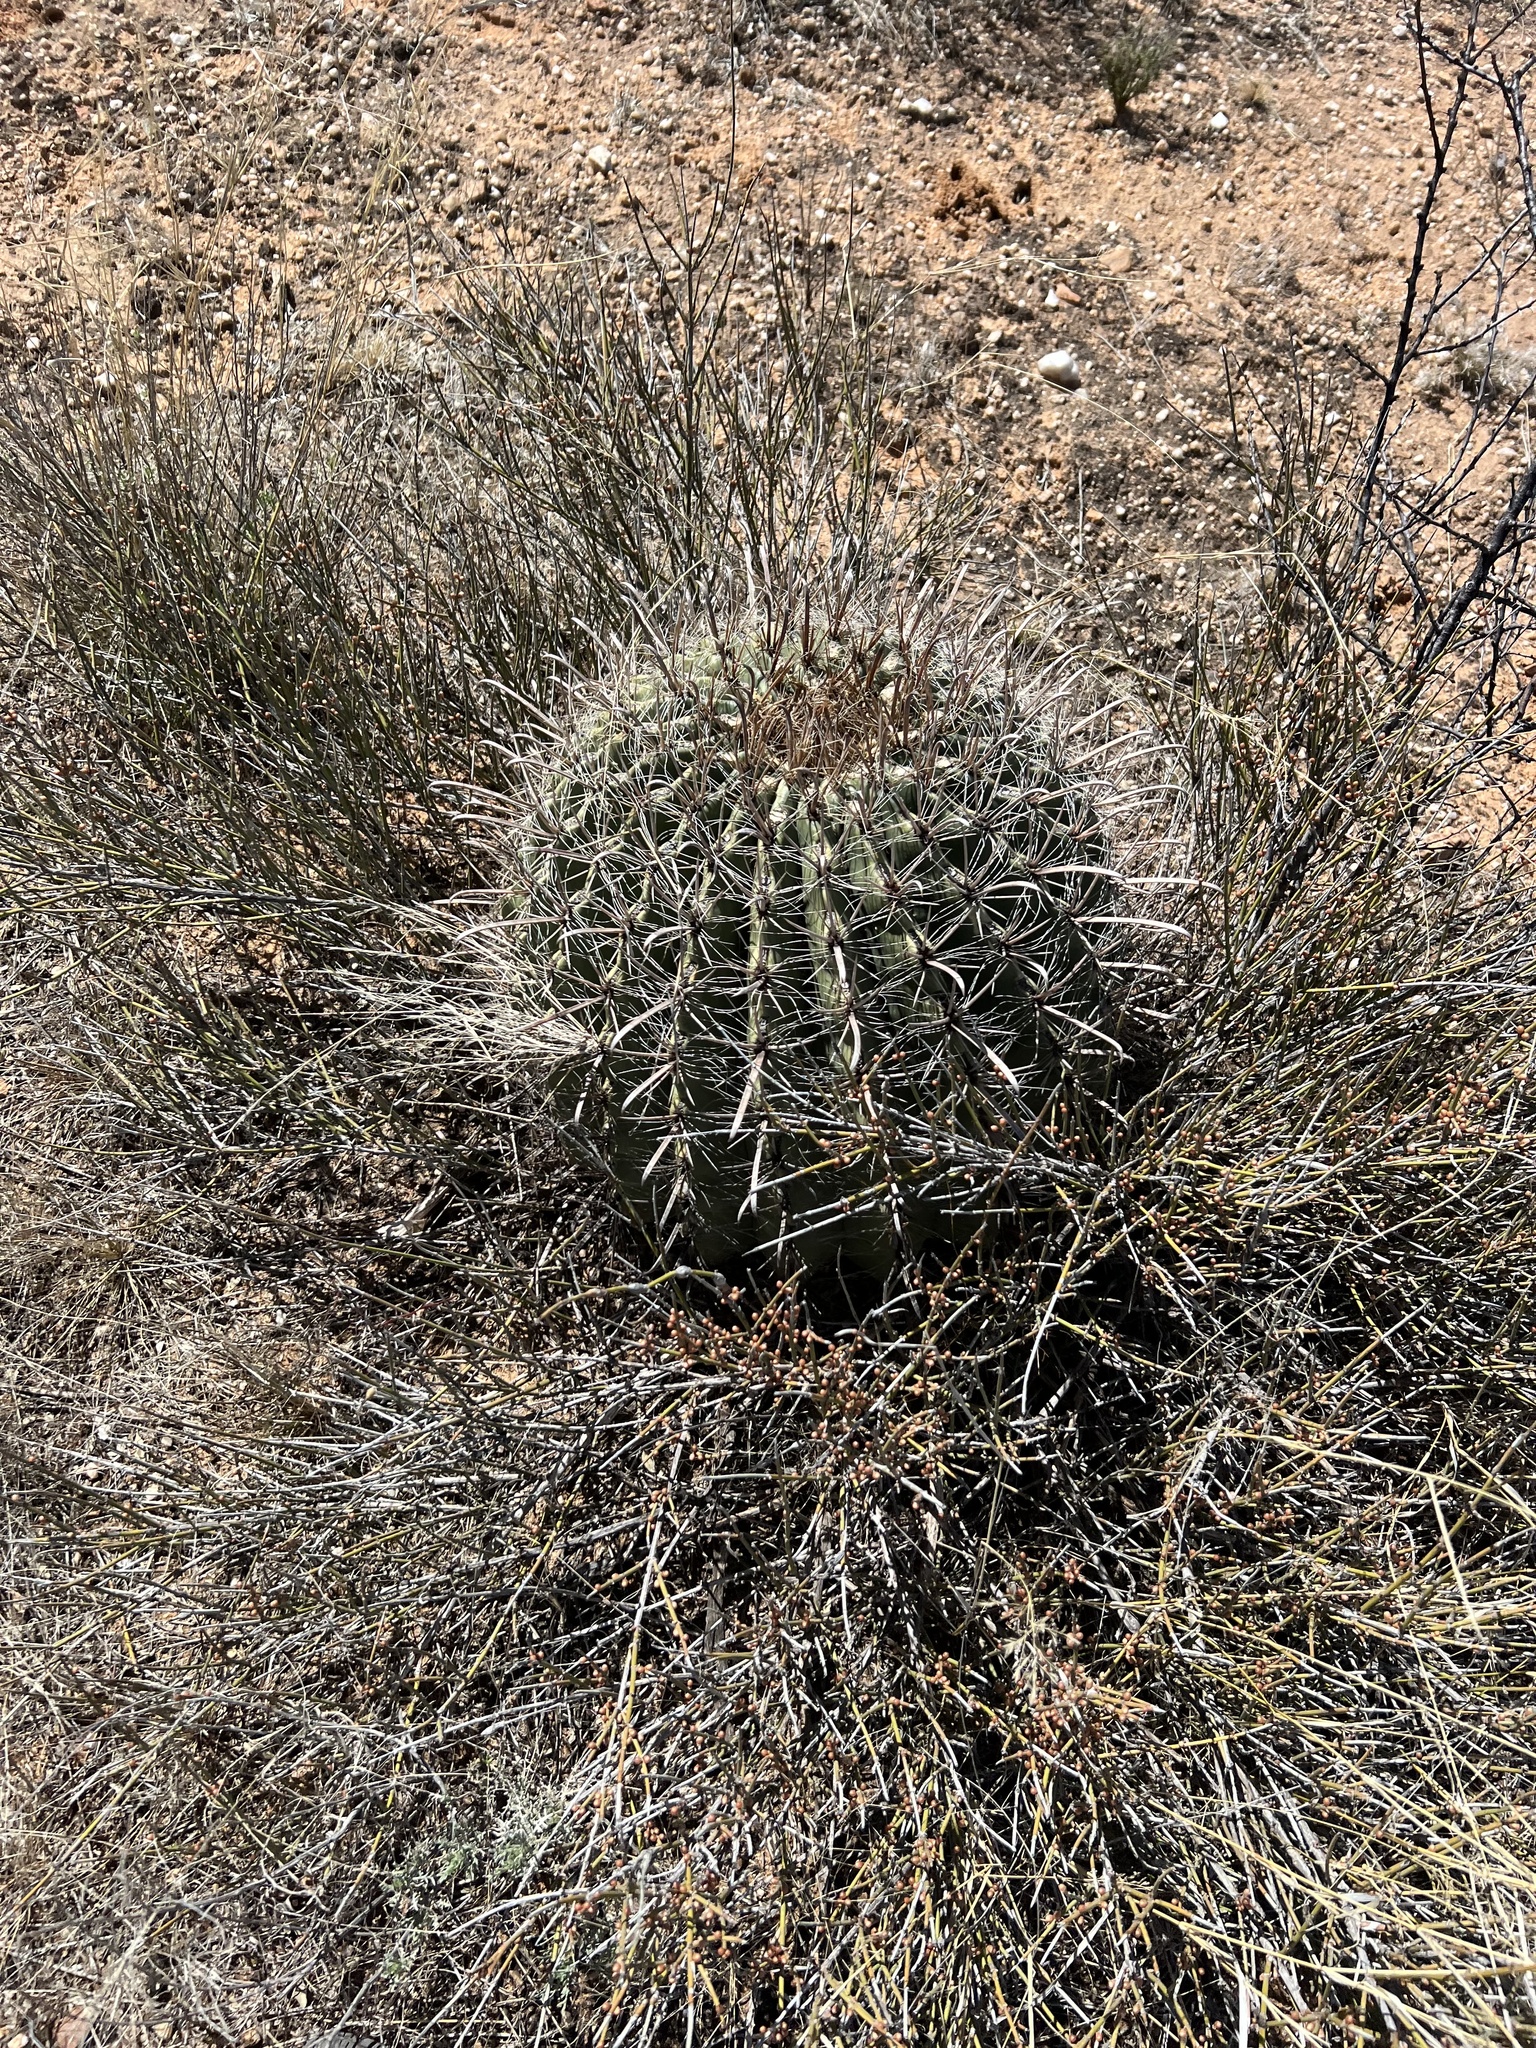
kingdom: Plantae
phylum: Tracheophyta
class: Magnoliopsida
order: Caryophyllales
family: Cactaceae
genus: Ferocactus
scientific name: Ferocactus wislizeni
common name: Candy barrel cactus
